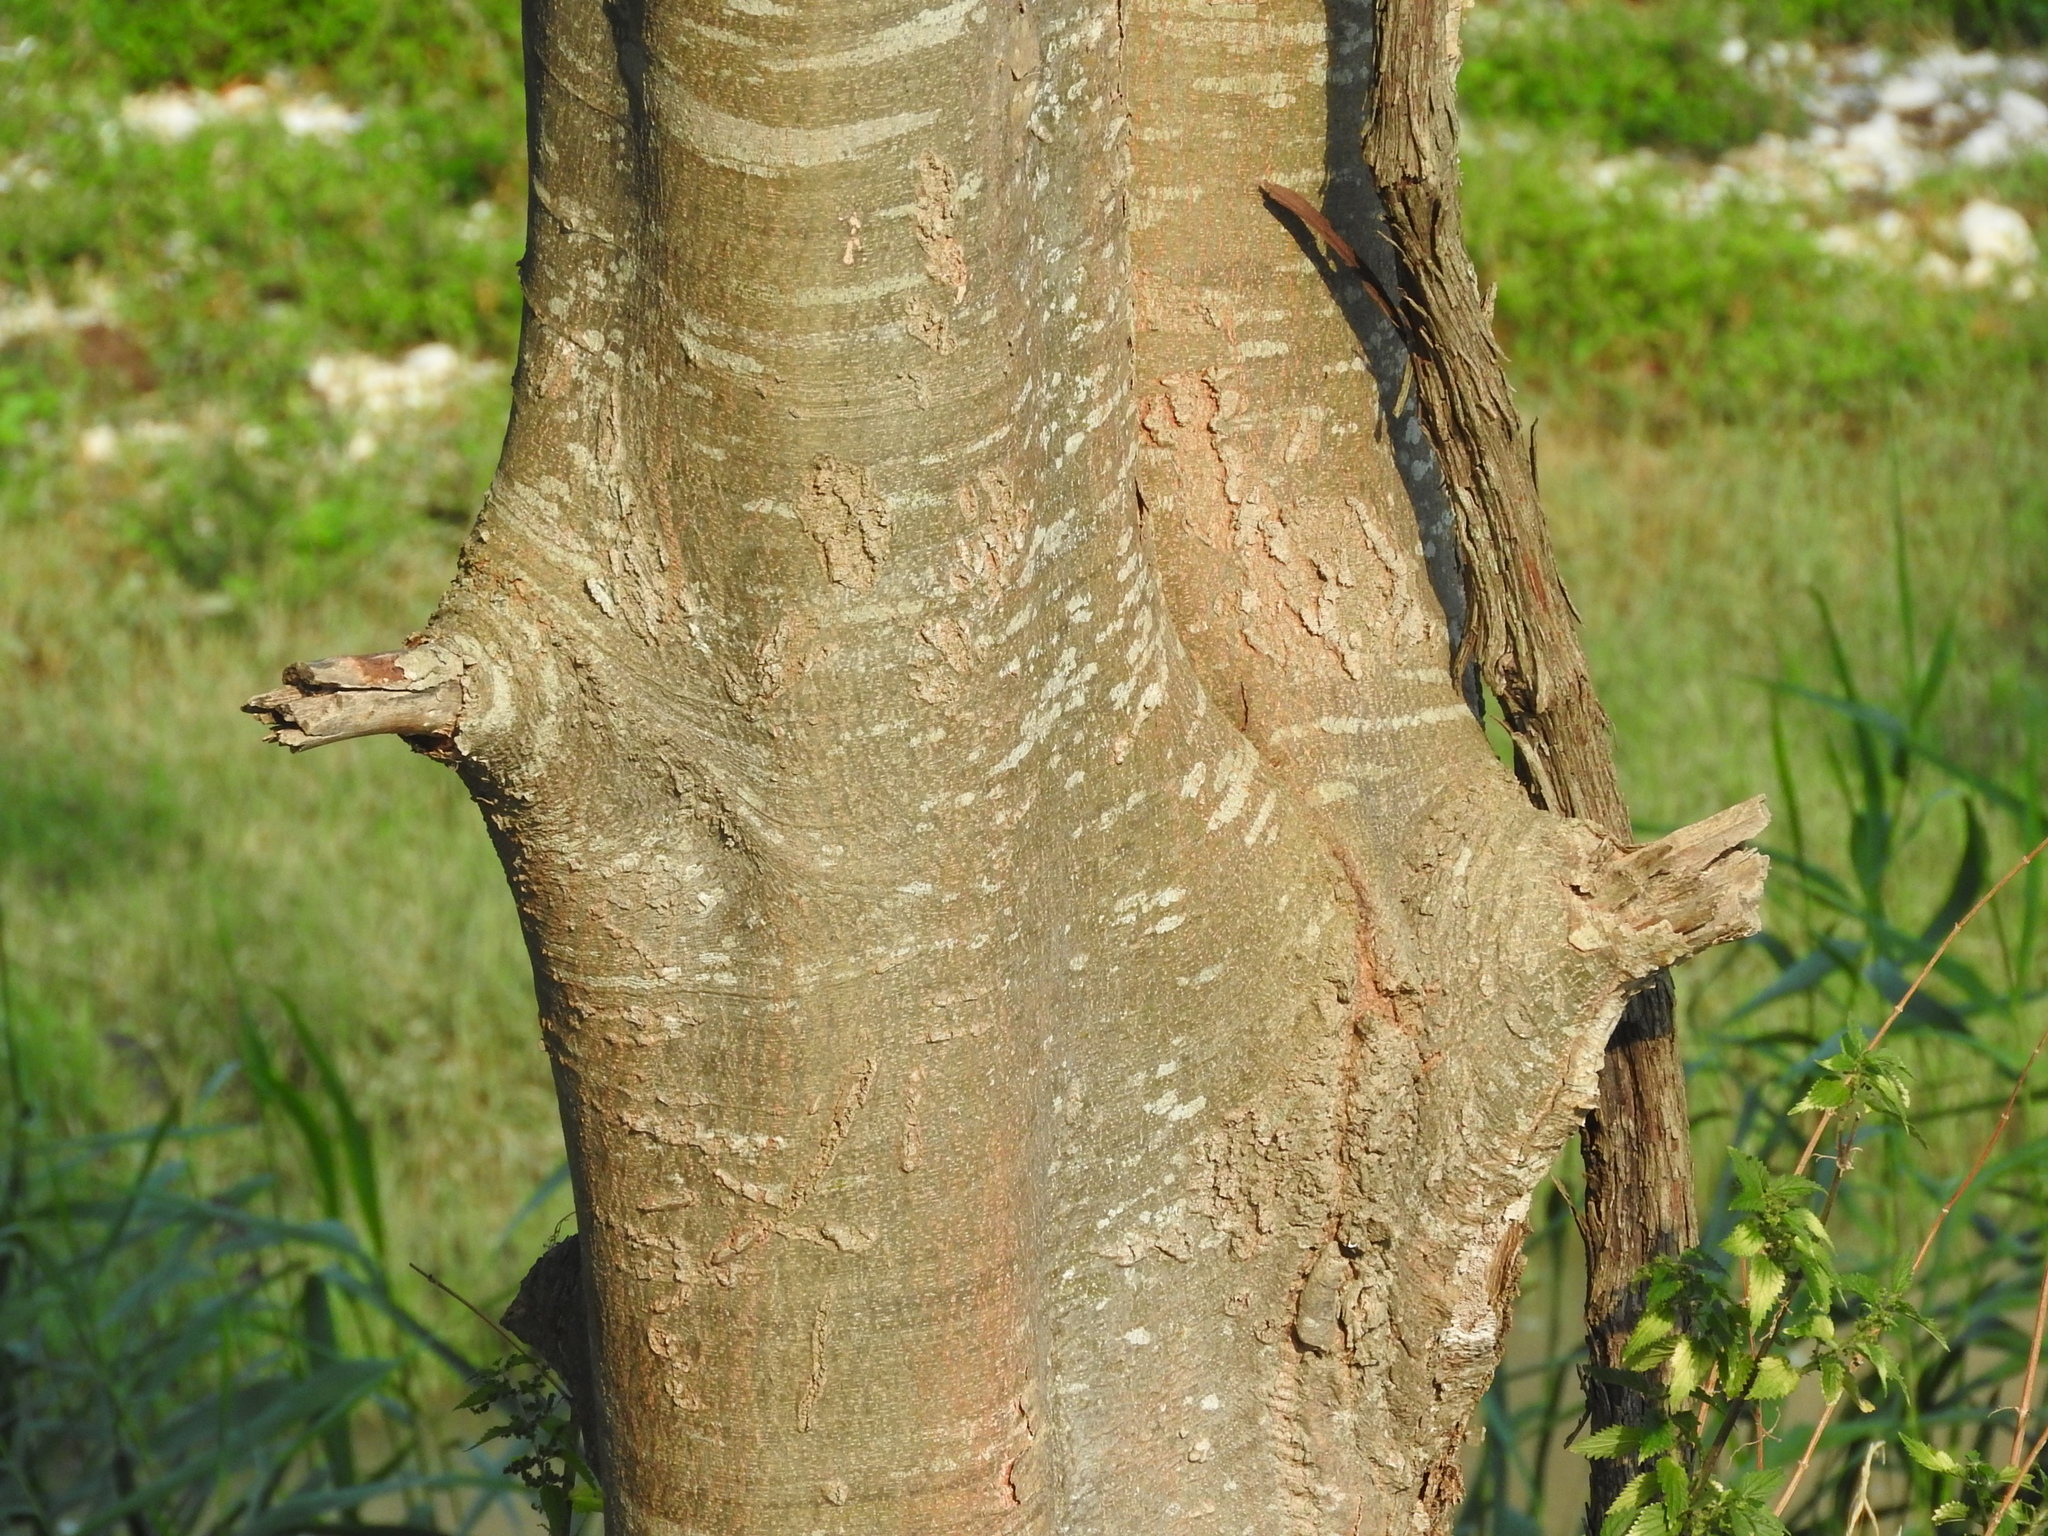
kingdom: Plantae
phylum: Tracheophyta
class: Magnoliopsida
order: Rosales
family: Cannabaceae
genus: Celtis
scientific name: Celtis australis
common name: European hackberry
